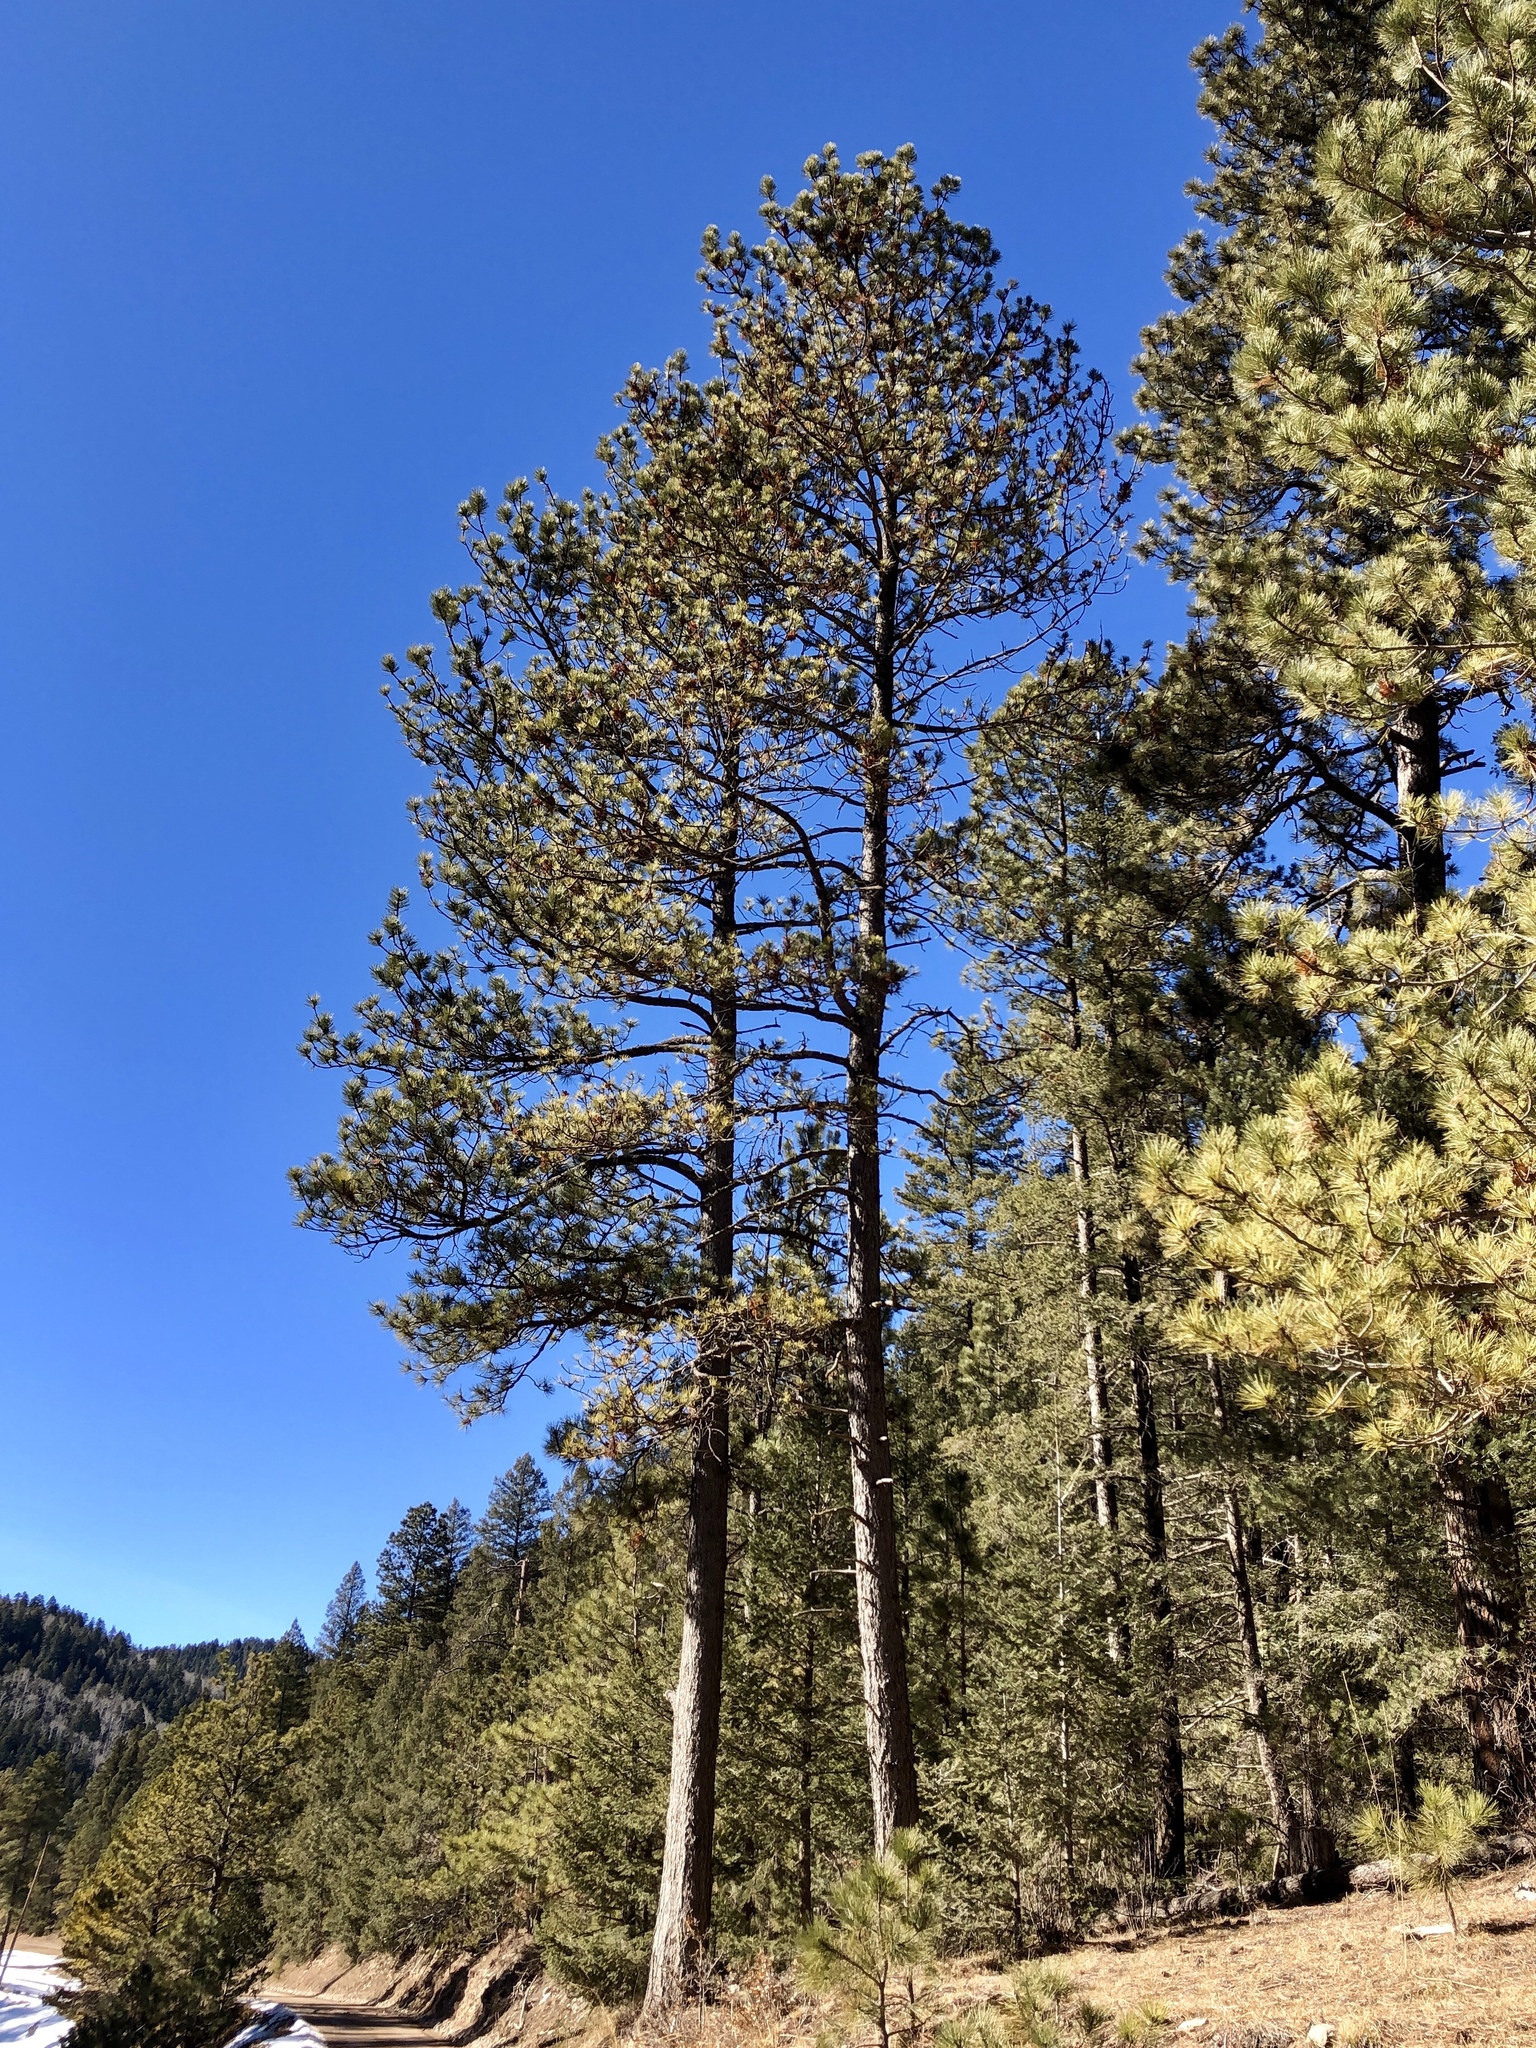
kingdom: Plantae
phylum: Tracheophyta
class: Pinopsida
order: Pinales
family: Pinaceae
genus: Pinus
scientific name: Pinus ponderosa
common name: Western yellow-pine
